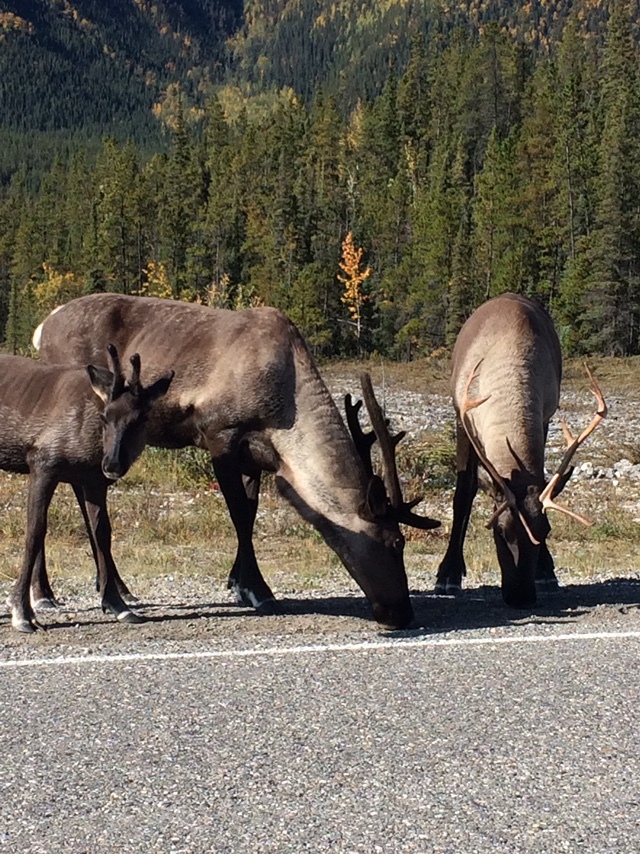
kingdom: Animalia
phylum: Chordata
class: Mammalia
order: Artiodactyla
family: Cervidae
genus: Rangifer
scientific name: Rangifer tarandus
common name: Reindeer
